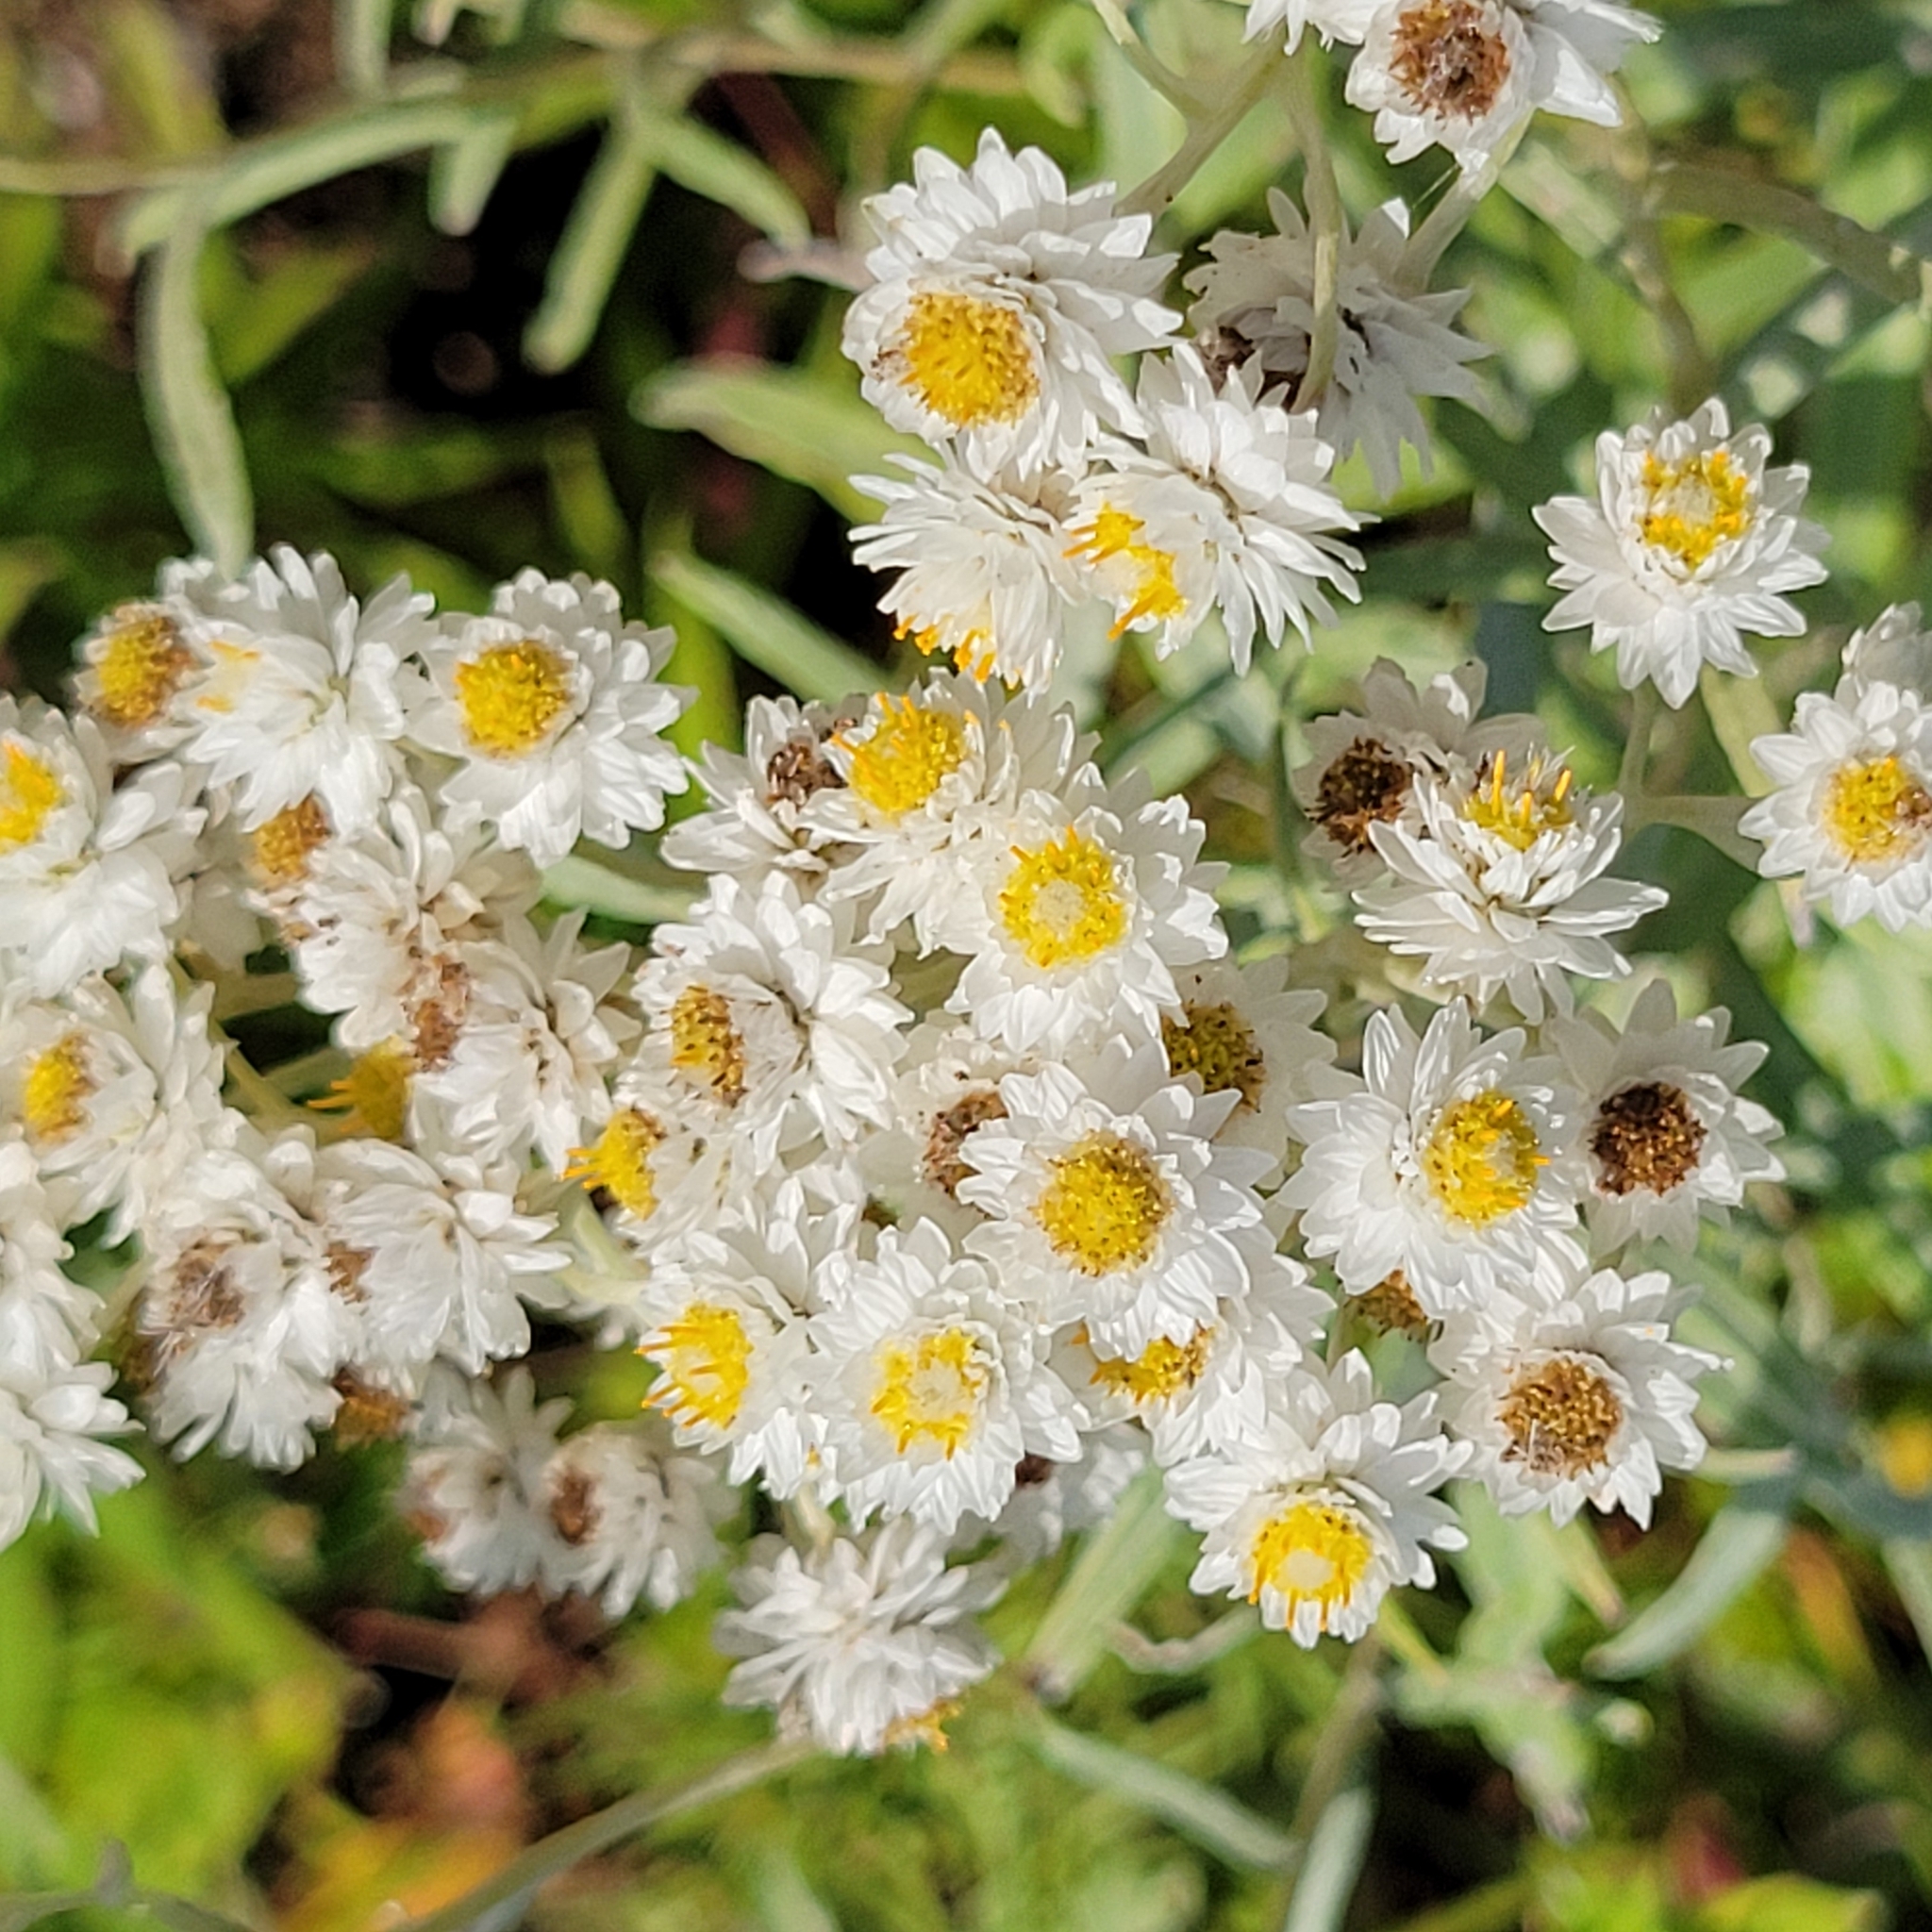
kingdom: Plantae
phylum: Tracheophyta
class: Magnoliopsida
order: Asterales
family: Asteraceae
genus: Anaphalis
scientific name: Anaphalis margaritacea
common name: Pearly everlasting
